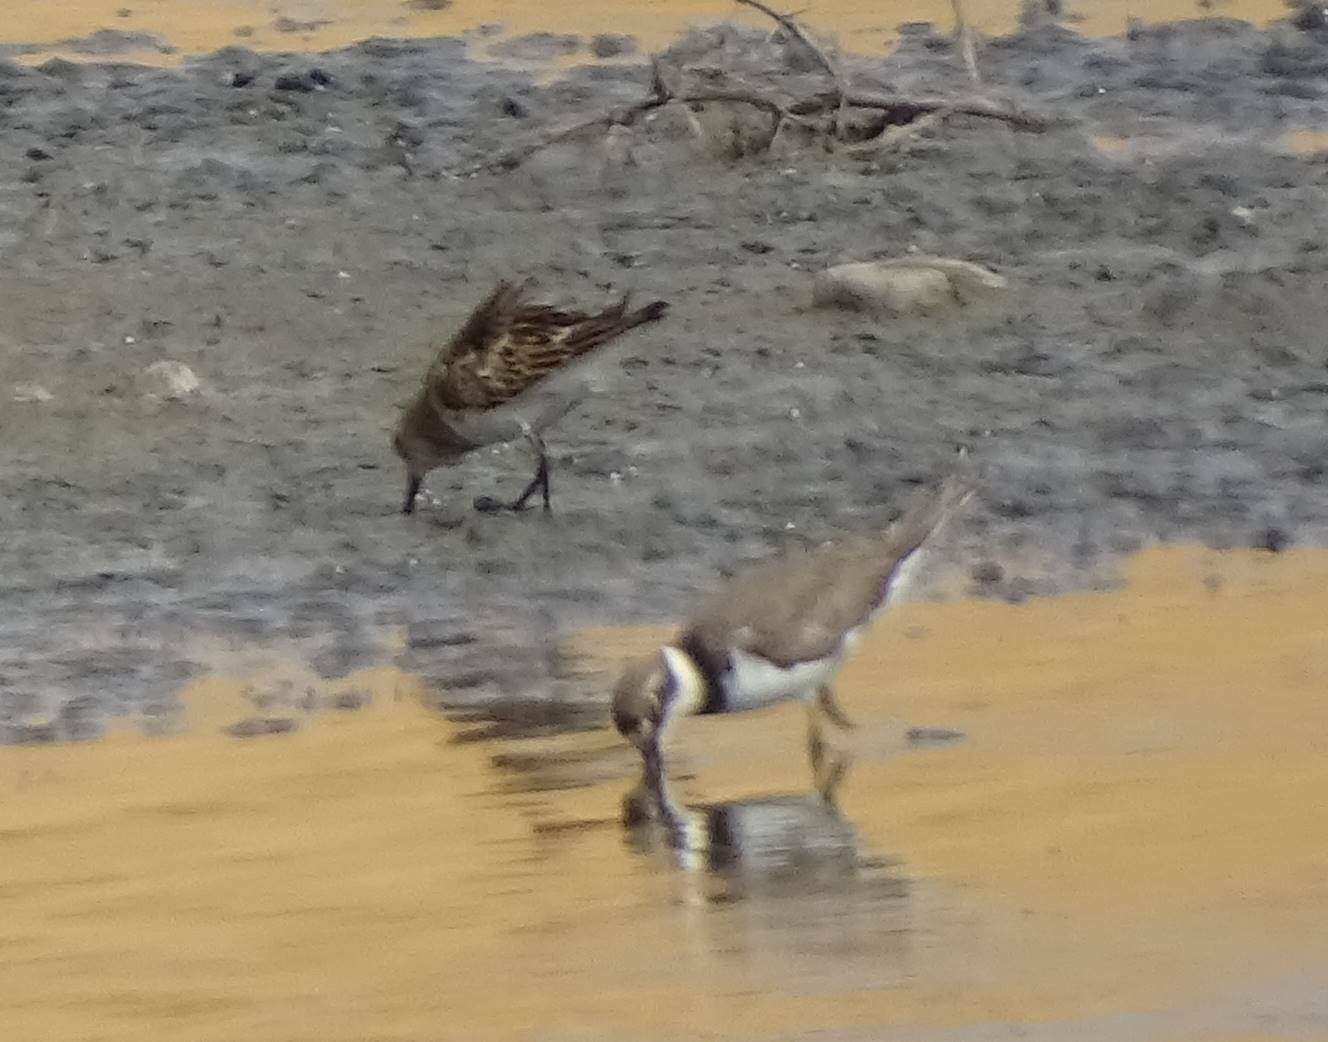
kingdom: Animalia
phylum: Chordata
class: Aves
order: Charadriiformes
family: Charadriidae
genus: Charadrius
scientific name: Charadrius dubius
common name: Little ringed plover
